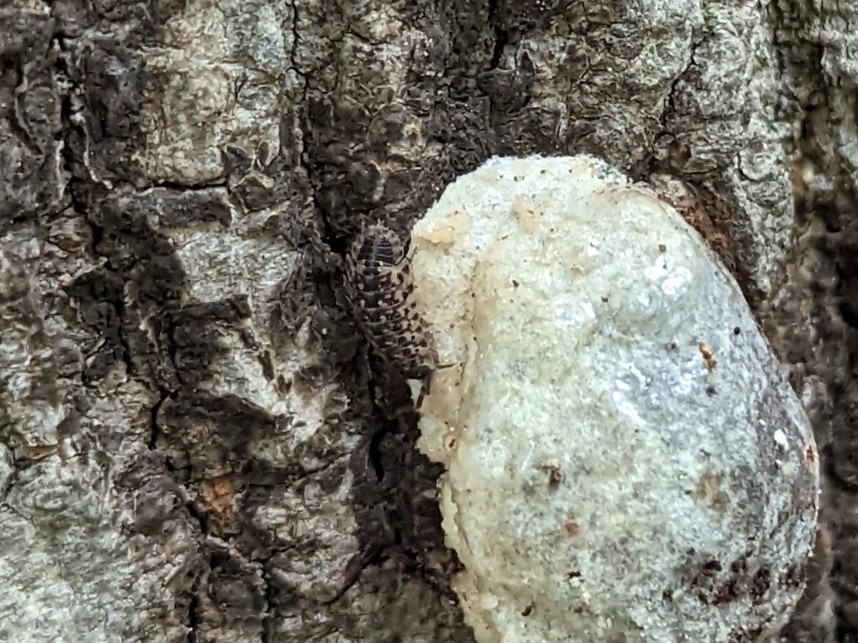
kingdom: Animalia
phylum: Arthropoda
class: Malacostraca
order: Isopoda
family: Porcellionidae
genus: Porcellio
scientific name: Porcellio spinicornis
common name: Painted woodlouse
